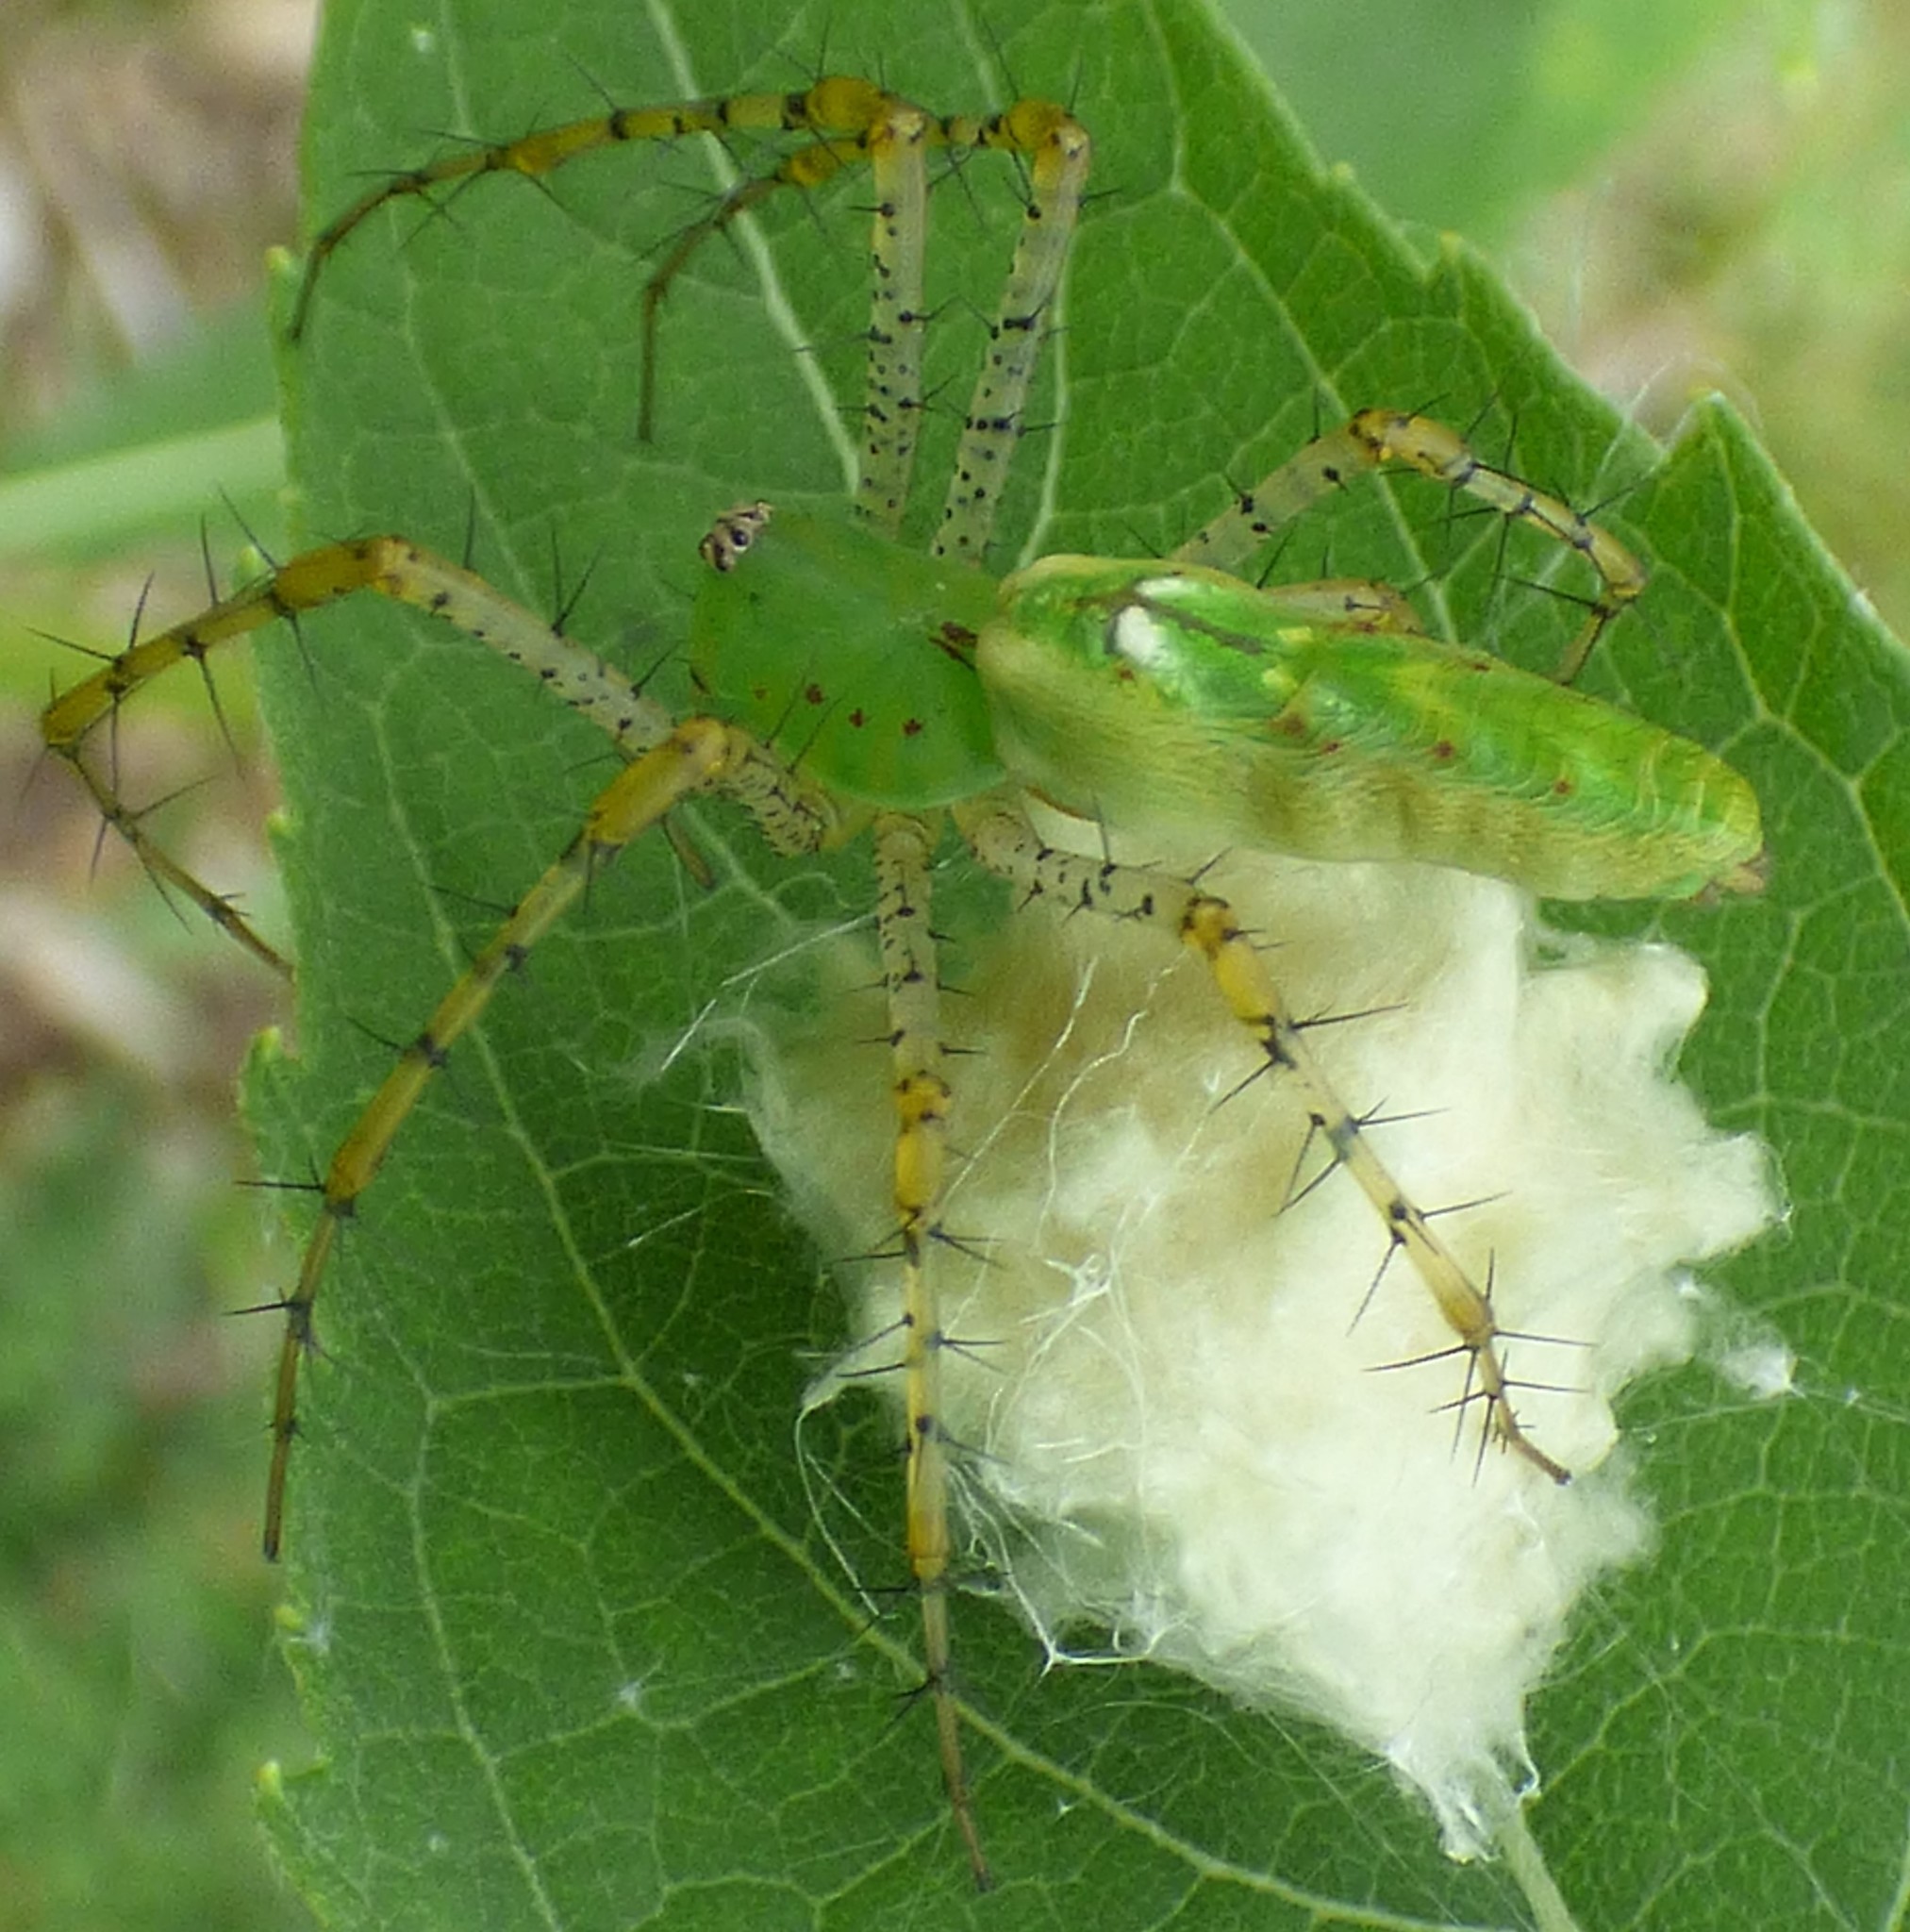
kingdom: Animalia
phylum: Arthropoda
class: Arachnida
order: Araneae
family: Oxyopidae
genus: Peucetia
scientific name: Peucetia viridans
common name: Lynx spiders
